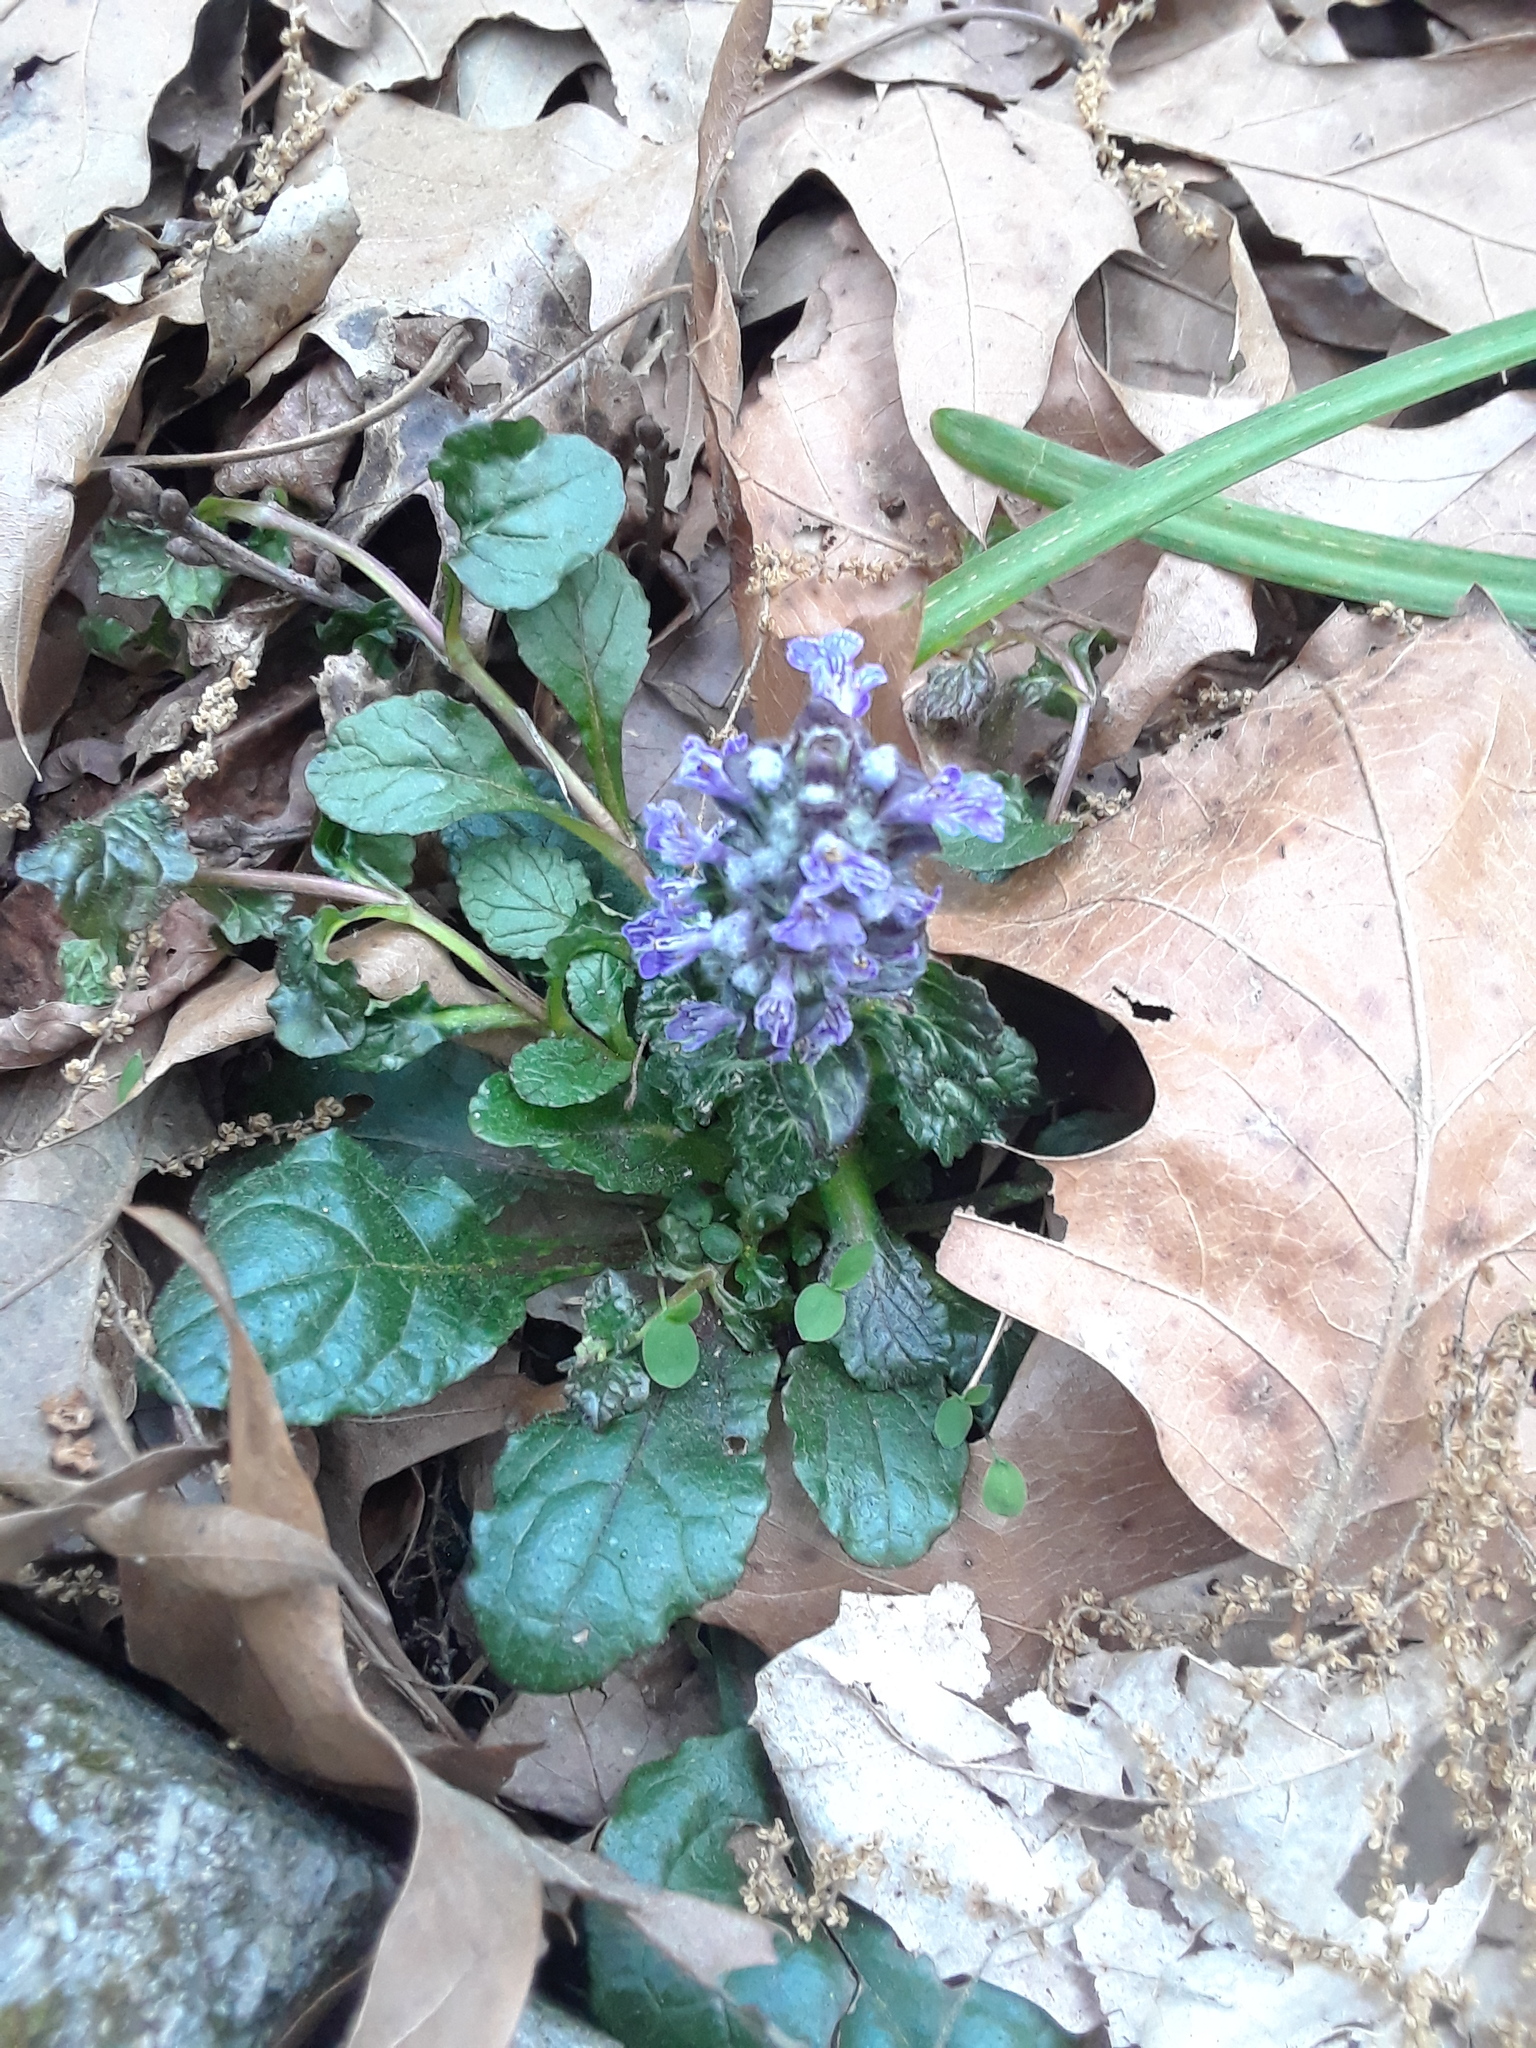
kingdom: Plantae
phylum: Tracheophyta
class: Magnoliopsida
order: Lamiales
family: Lamiaceae
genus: Ajuga
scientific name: Ajuga reptans
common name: Bugle
